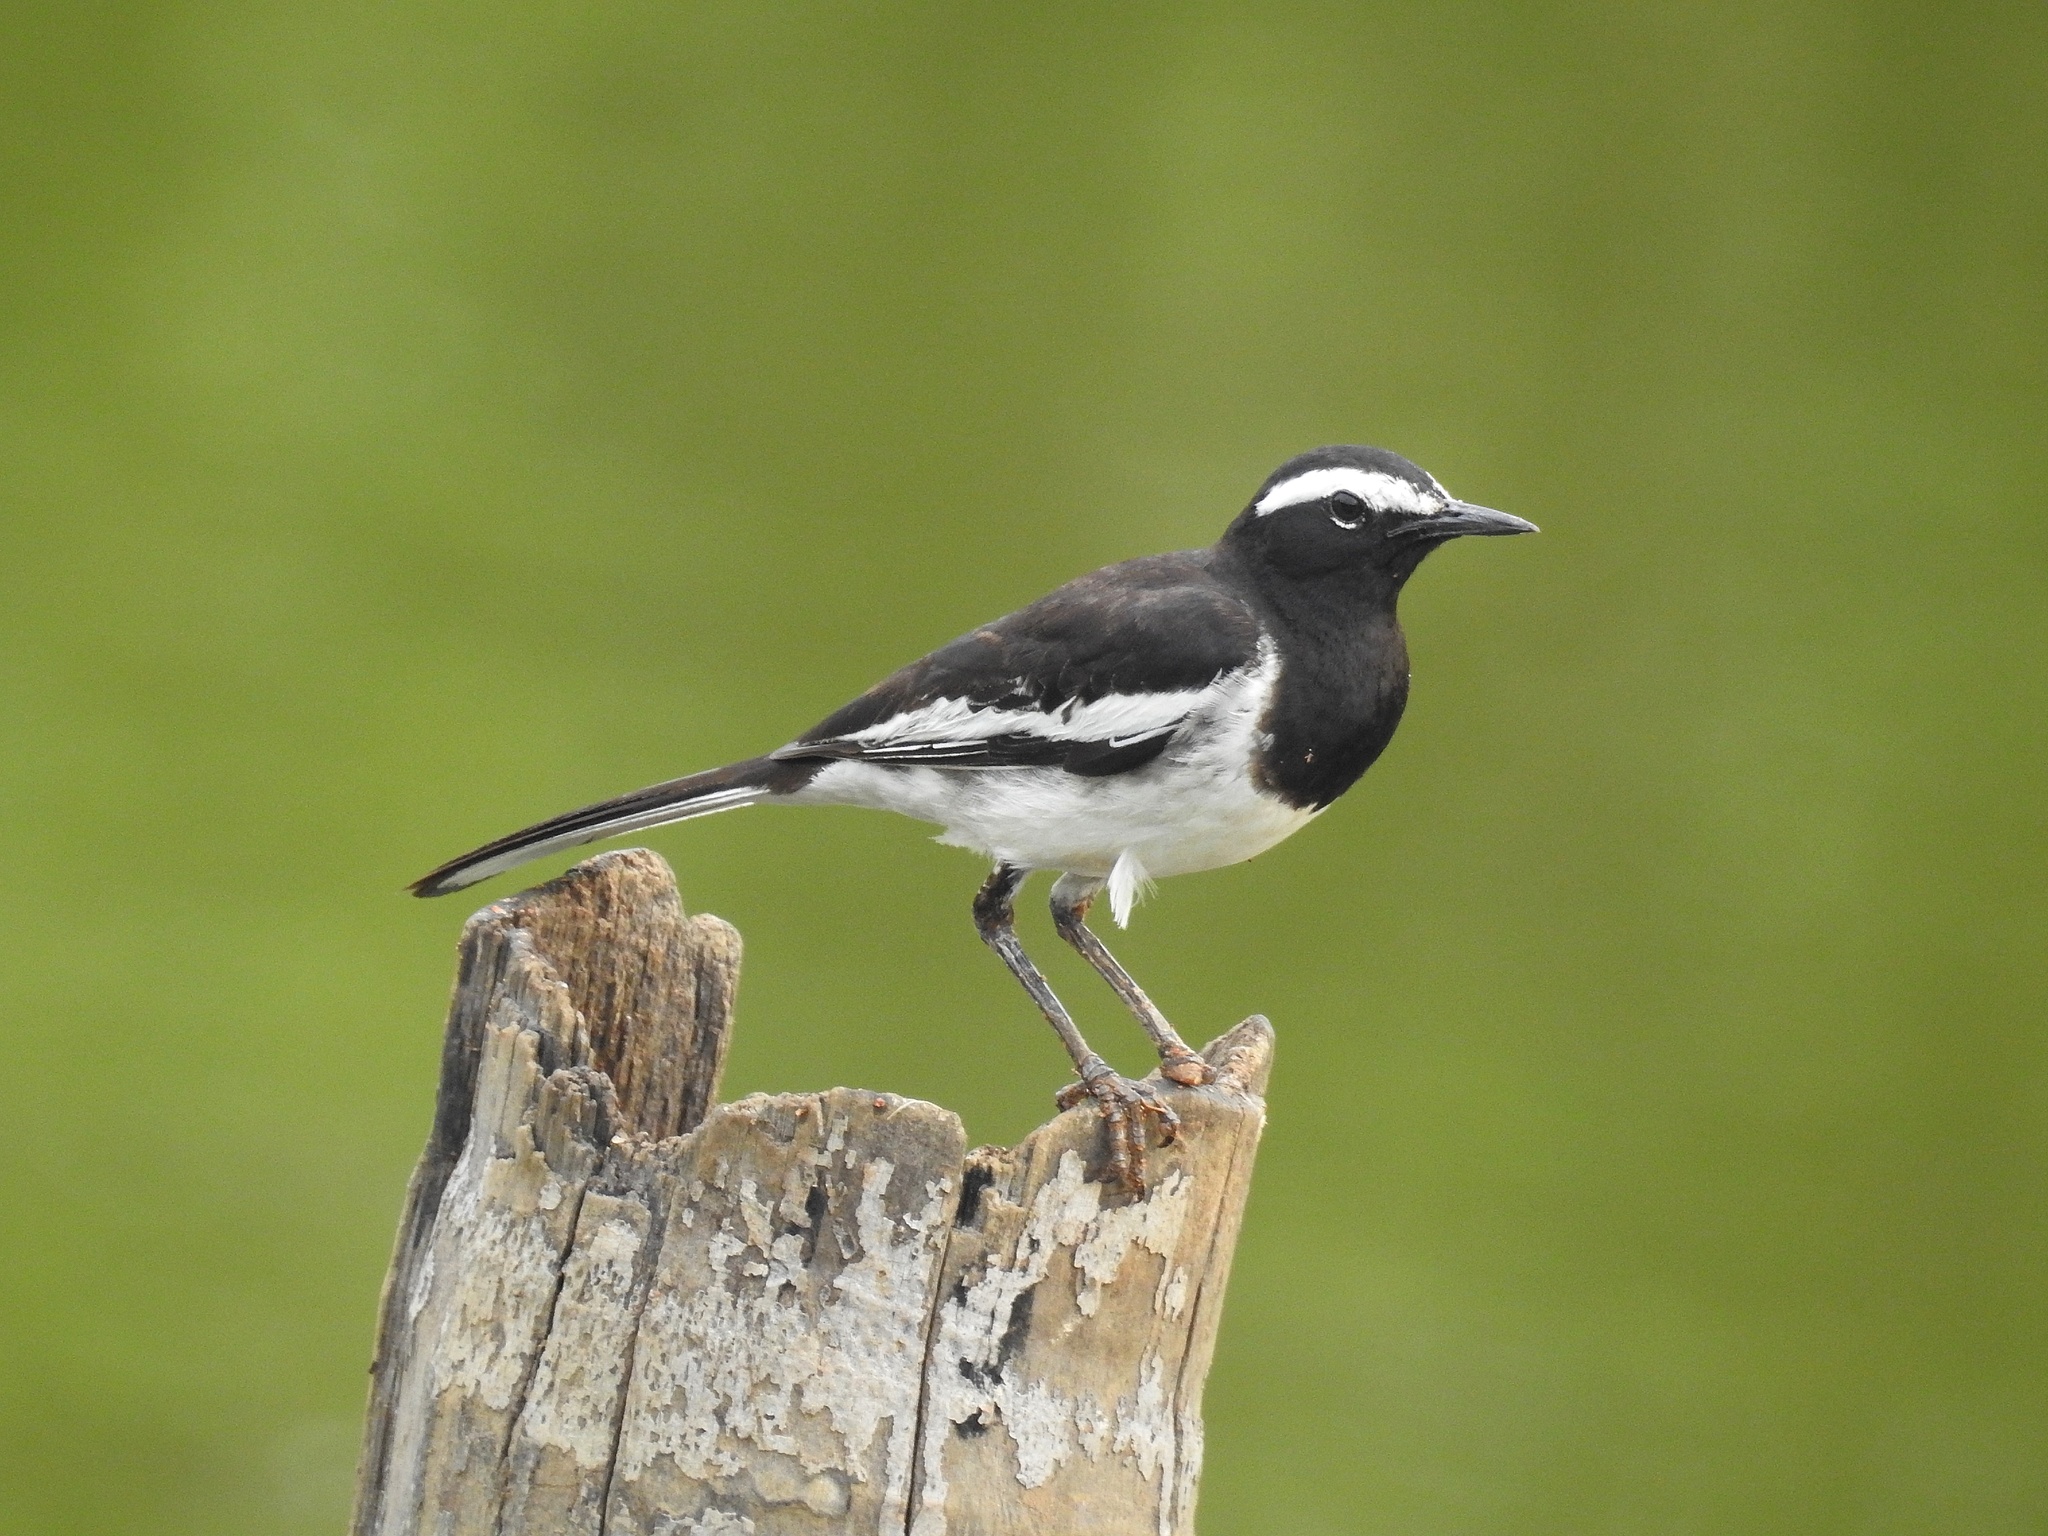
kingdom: Animalia
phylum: Chordata
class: Aves
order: Passeriformes
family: Motacillidae
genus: Motacilla
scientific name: Motacilla maderaspatensis
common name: White-browed wagtail
